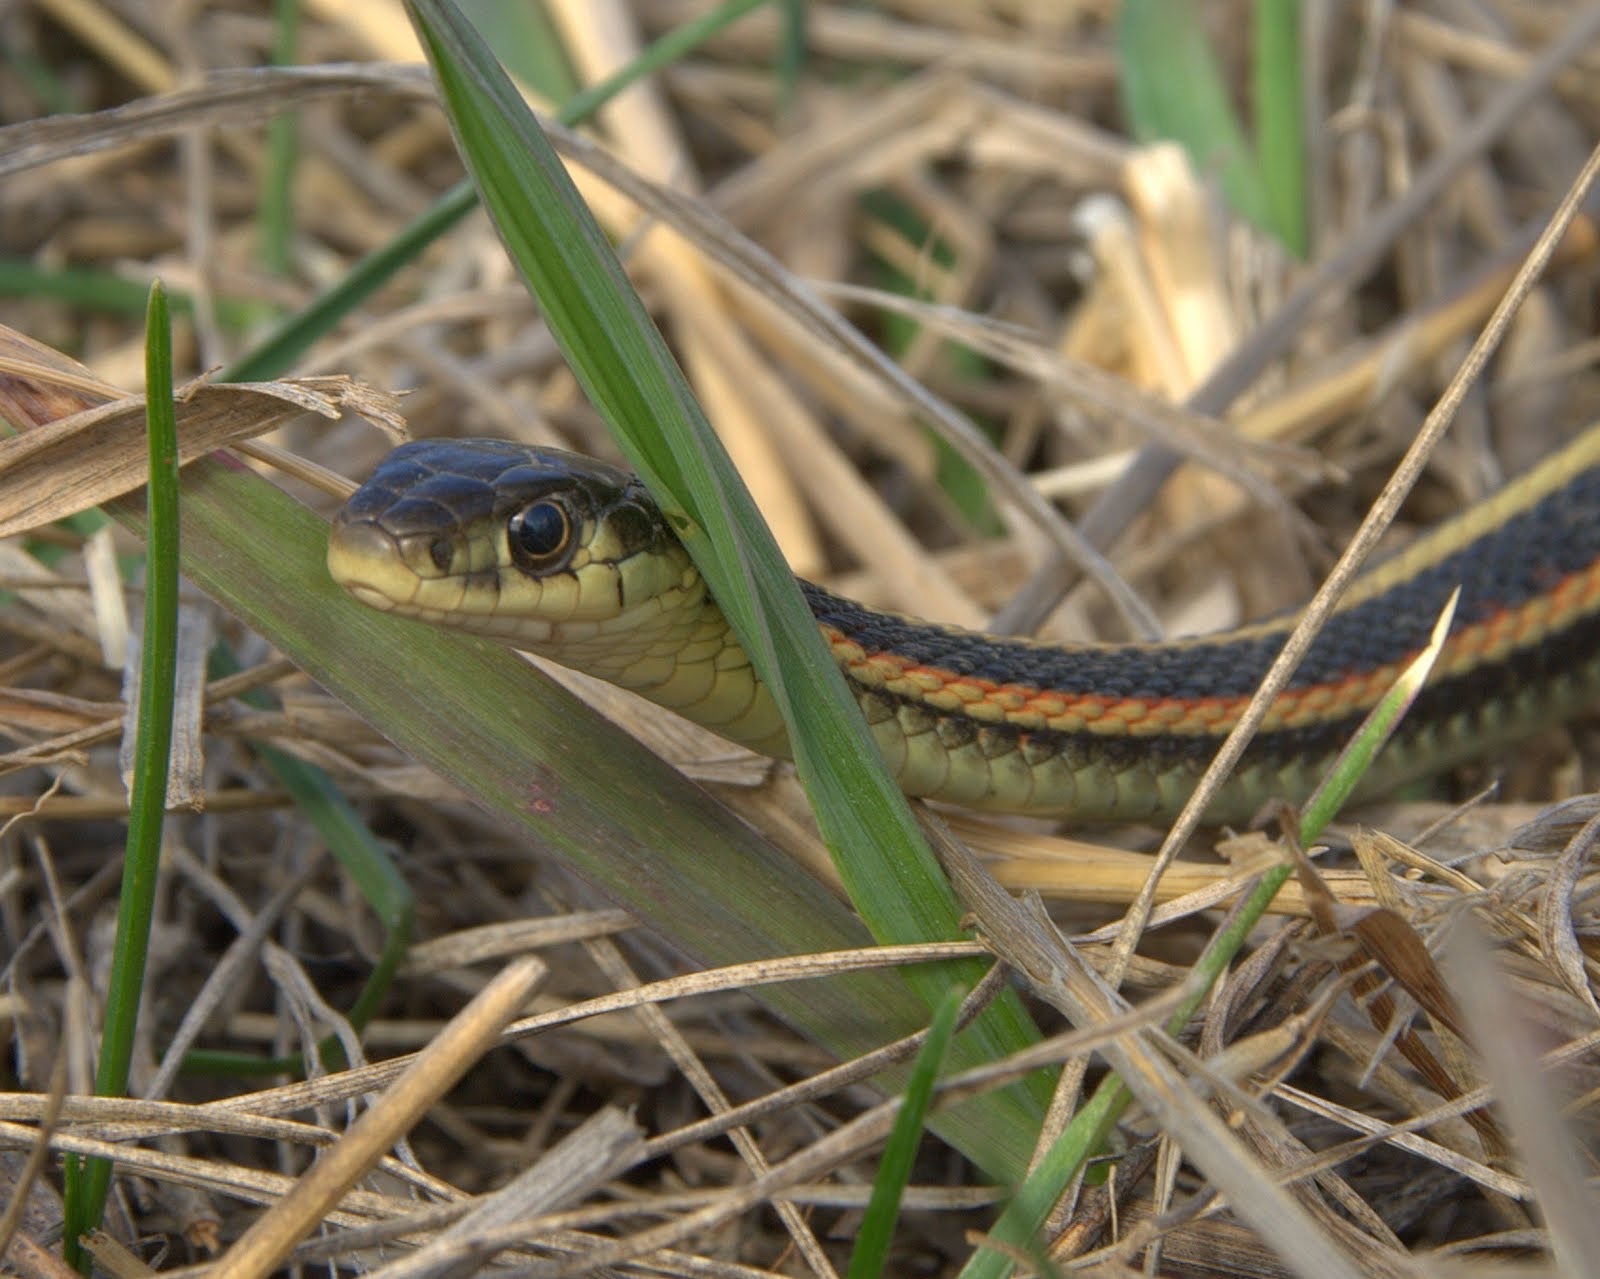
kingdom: Animalia
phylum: Chordata
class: Squamata
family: Colubridae
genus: Thamnophis
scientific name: Thamnophis sirtalis
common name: Common garter snake
